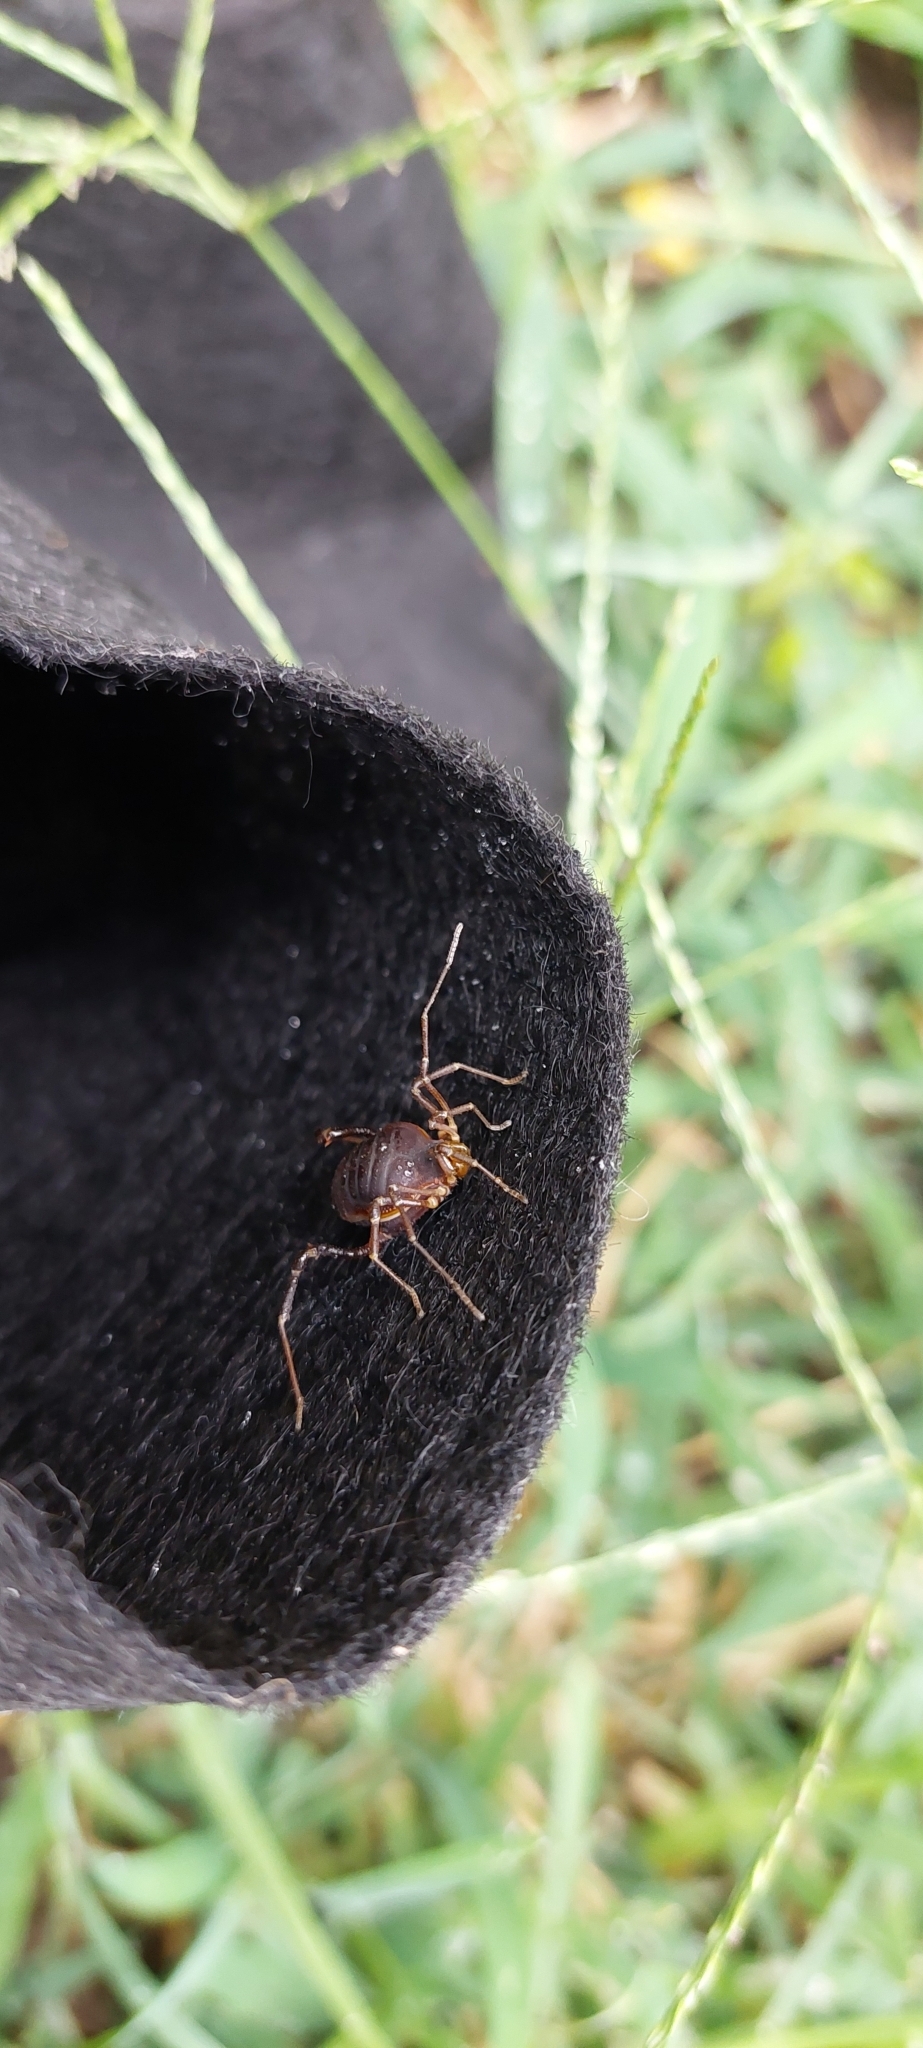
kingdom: Animalia
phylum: Arthropoda
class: Arachnida
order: Opiliones
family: Gonyleptidae
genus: Acanthopachylus
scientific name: Acanthopachylus robustus
